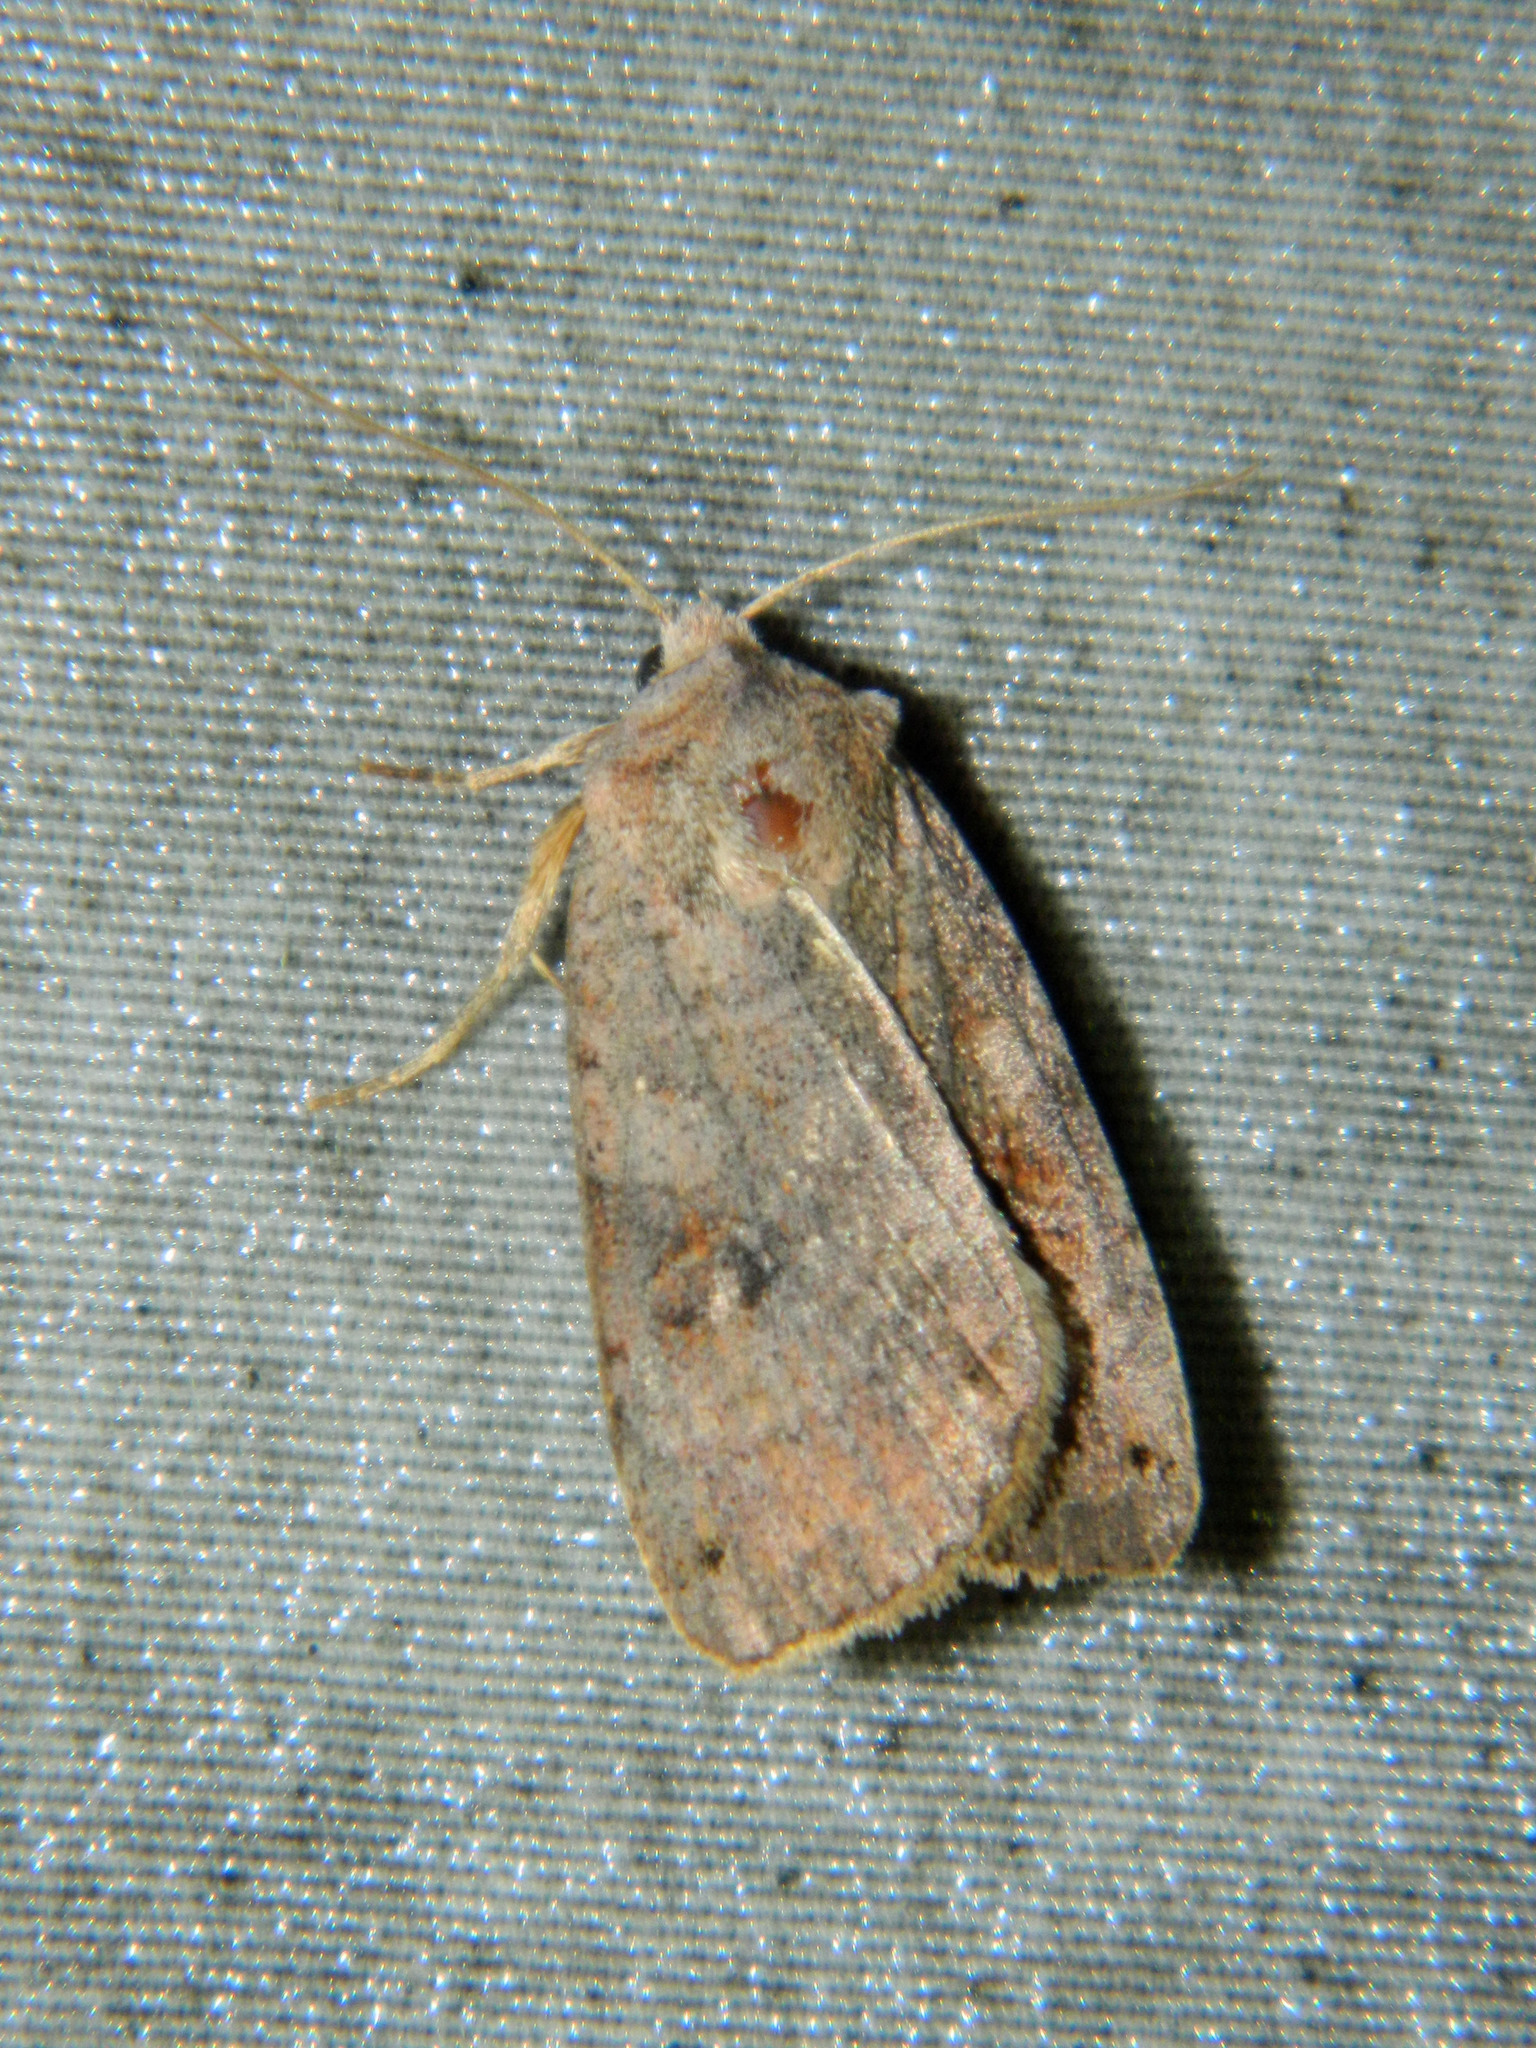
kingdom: Animalia
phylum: Arthropoda
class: Insecta
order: Lepidoptera
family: Noctuidae
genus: Xestia
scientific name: Xestia smithii
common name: Smith's dart
